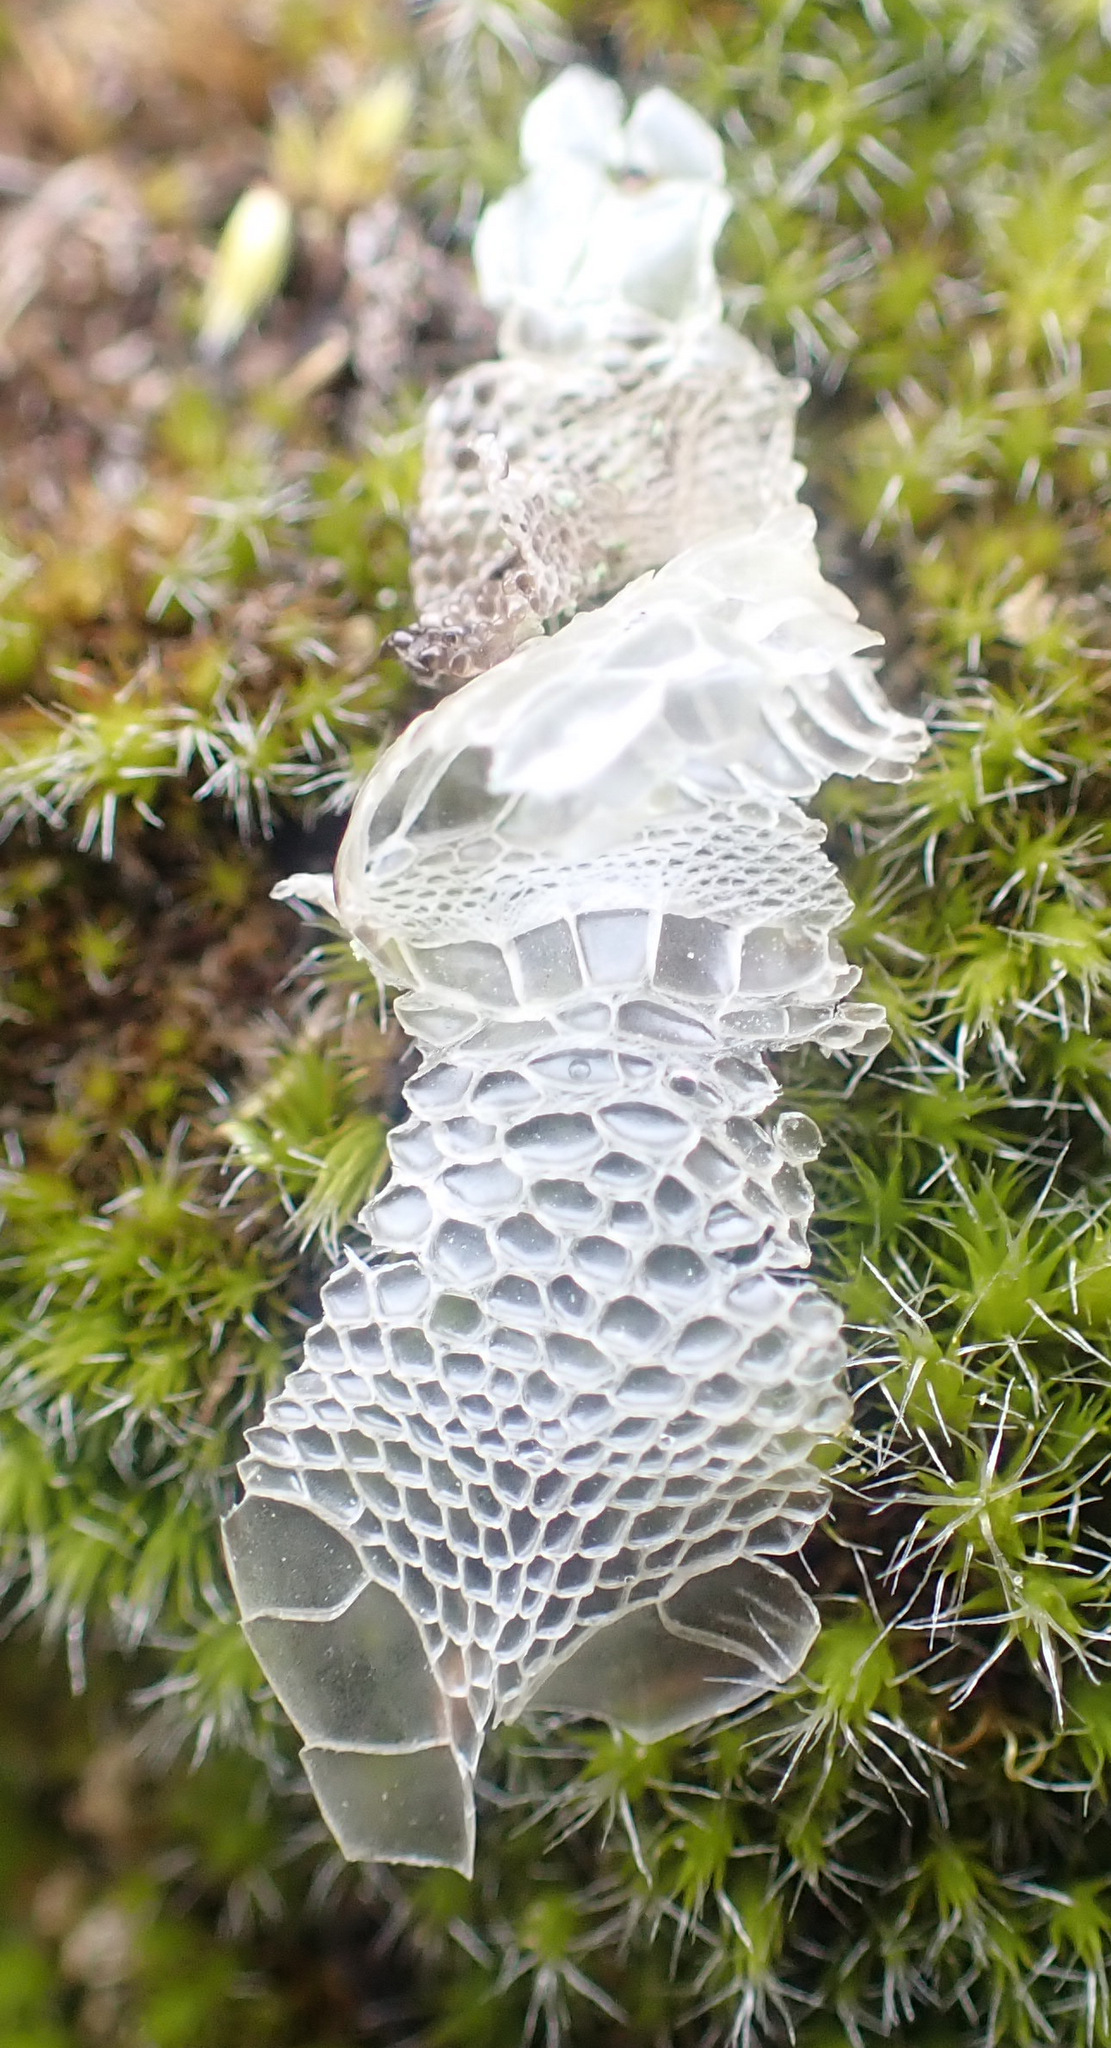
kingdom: Animalia
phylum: Chordata
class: Squamata
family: Lacertidae
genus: Zootoca
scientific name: Zootoca vivipara
